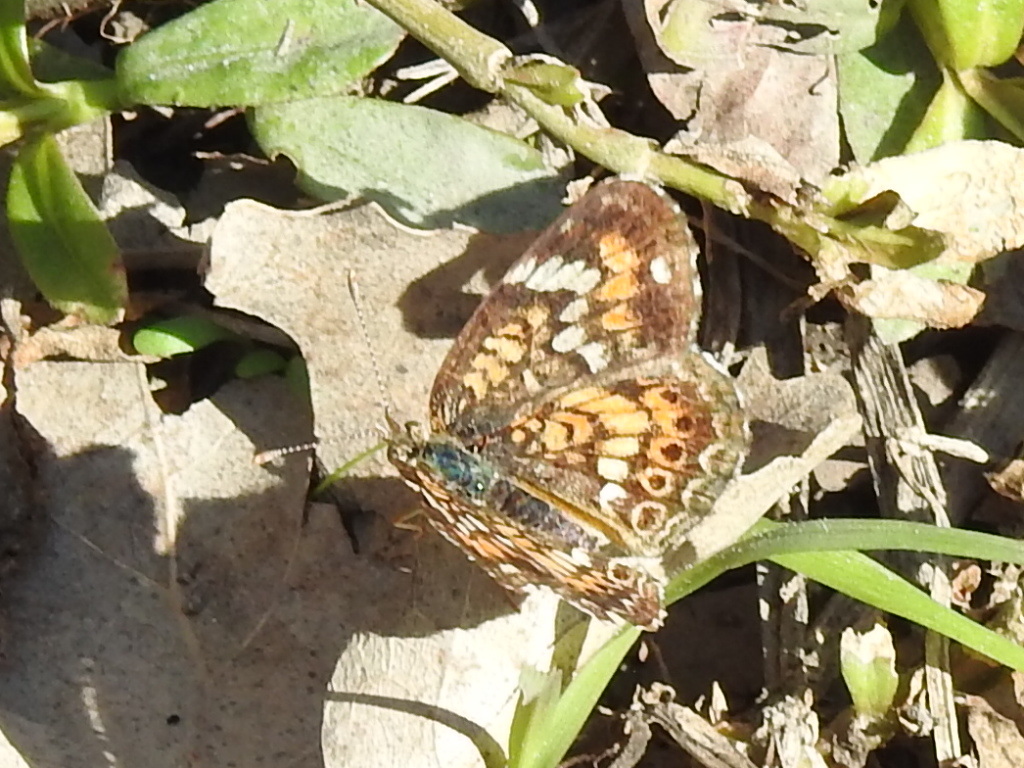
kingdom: Animalia
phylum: Arthropoda
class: Insecta
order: Lepidoptera
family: Nymphalidae
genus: Phyciodes
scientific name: Phyciodes phaon
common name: Phaon crescent
